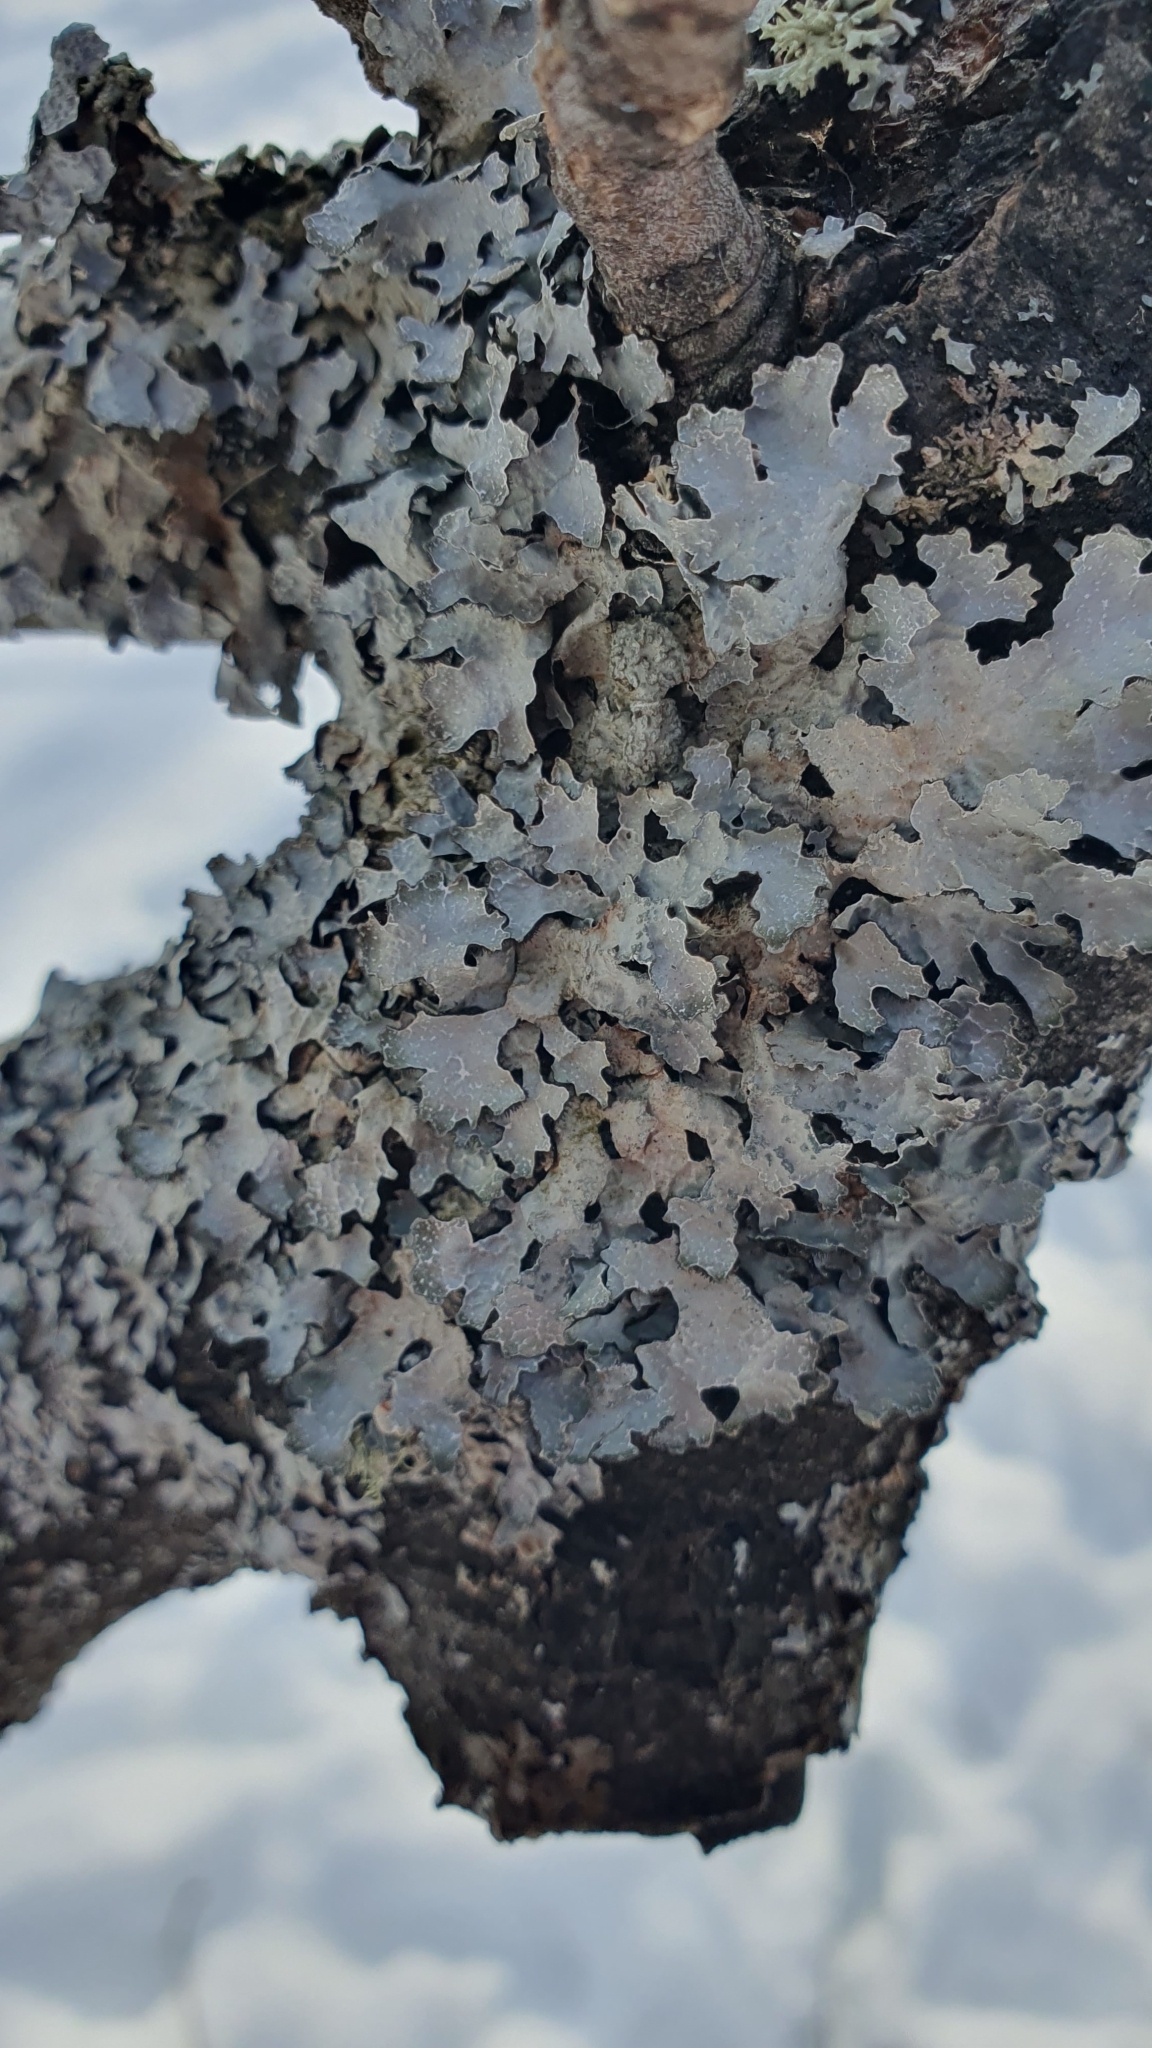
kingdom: Fungi
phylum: Ascomycota
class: Lecanoromycetes
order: Lecanorales
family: Parmeliaceae
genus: Parmelia
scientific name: Parmelia sulcata
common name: Netted shield lichen
